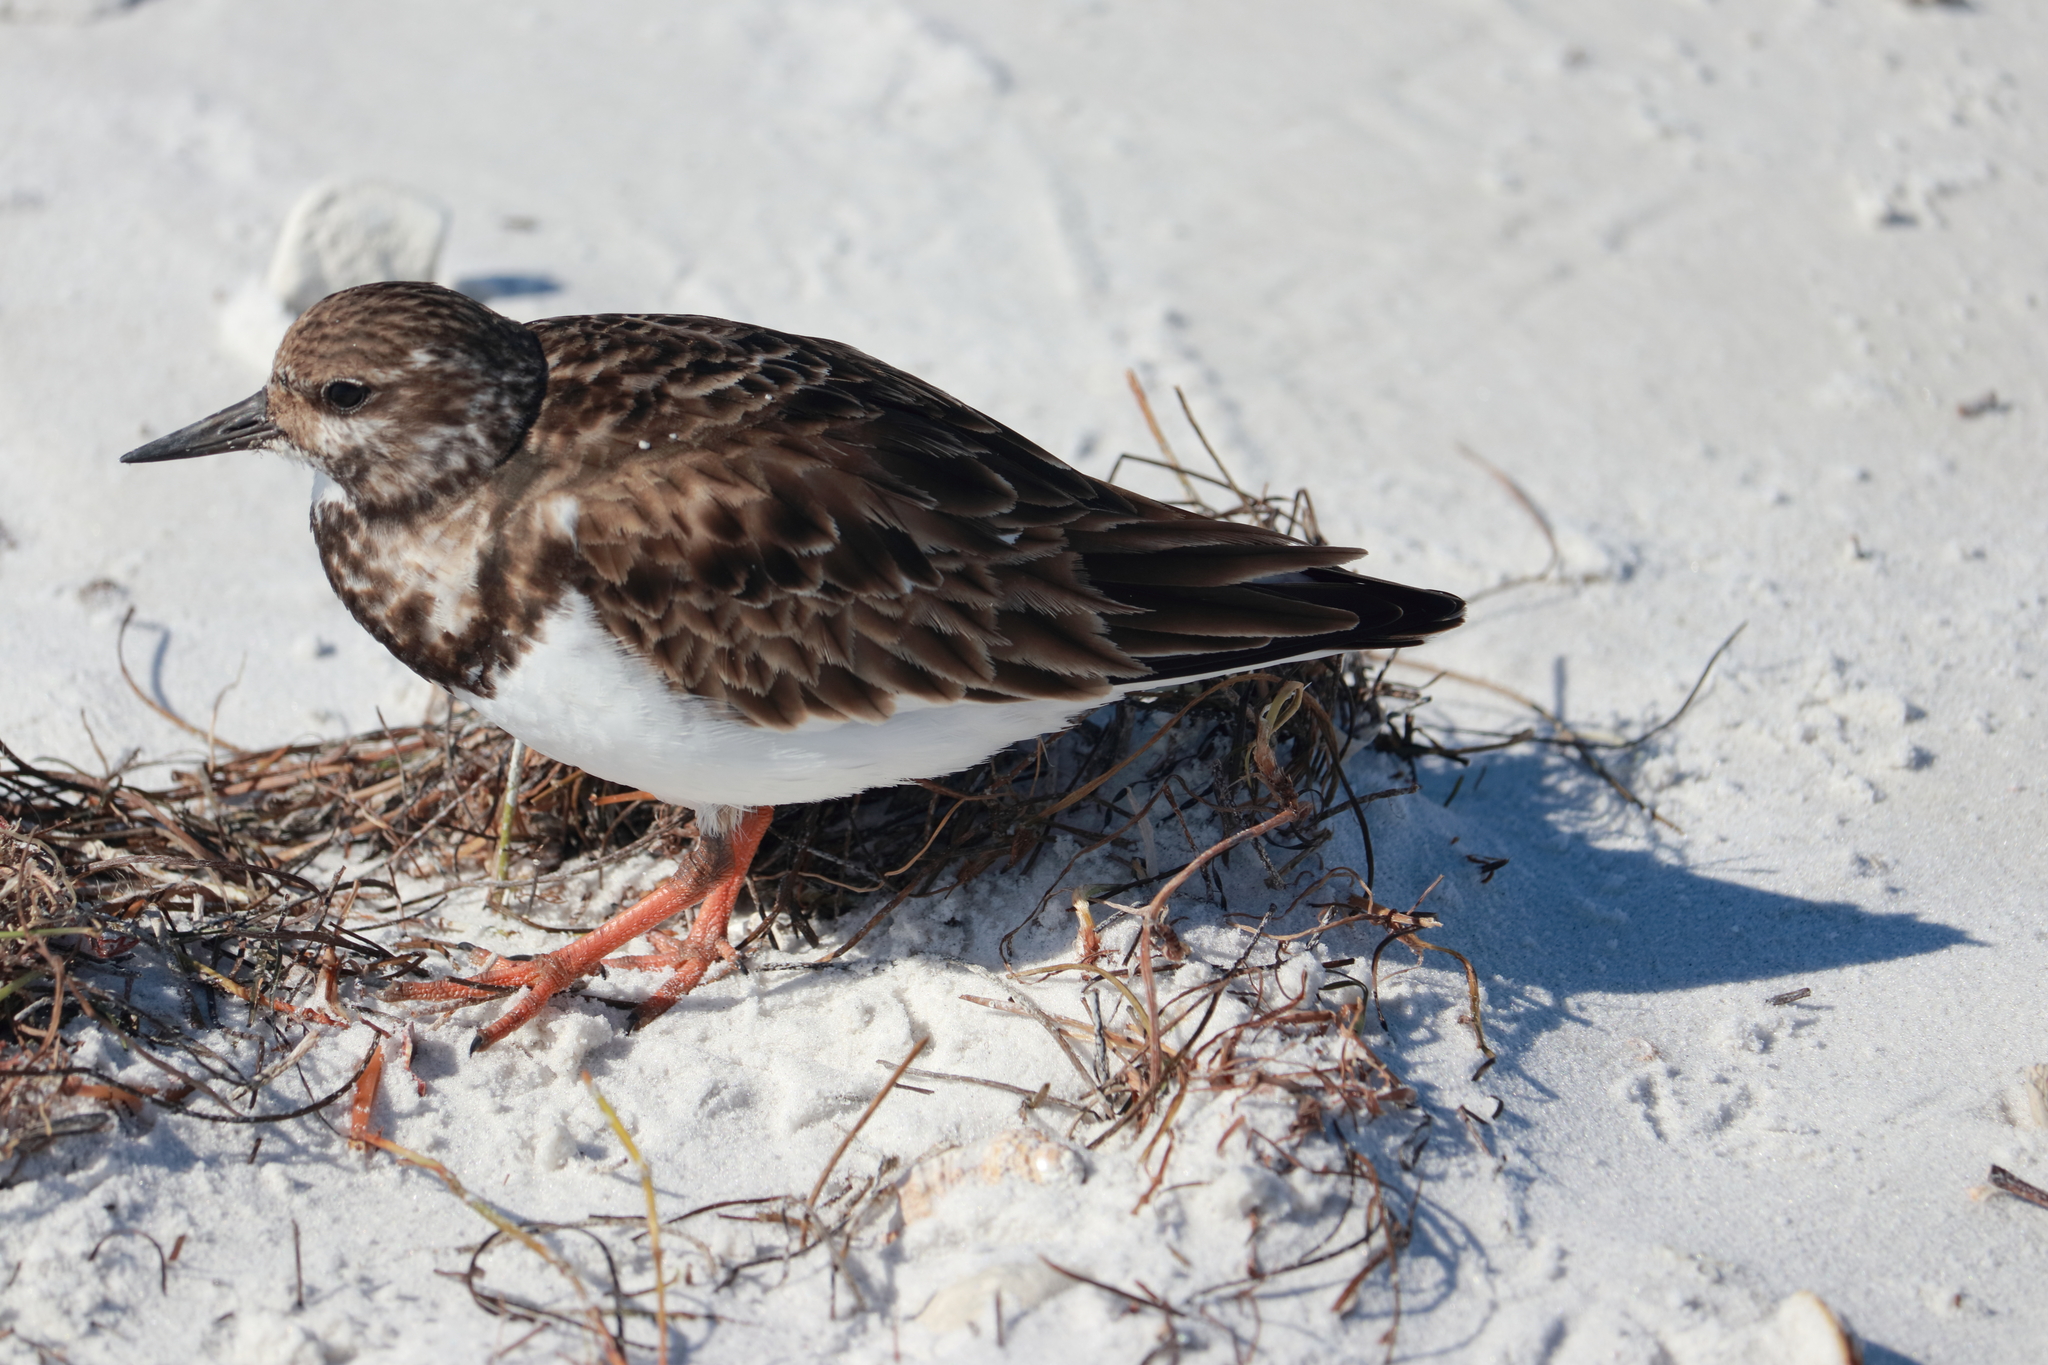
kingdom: Animalia
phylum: Chordata
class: Aves
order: Charadriiformes
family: Scolopacidae
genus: Arenaria
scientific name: Arenaria interpres
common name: Ruddy turnstone
